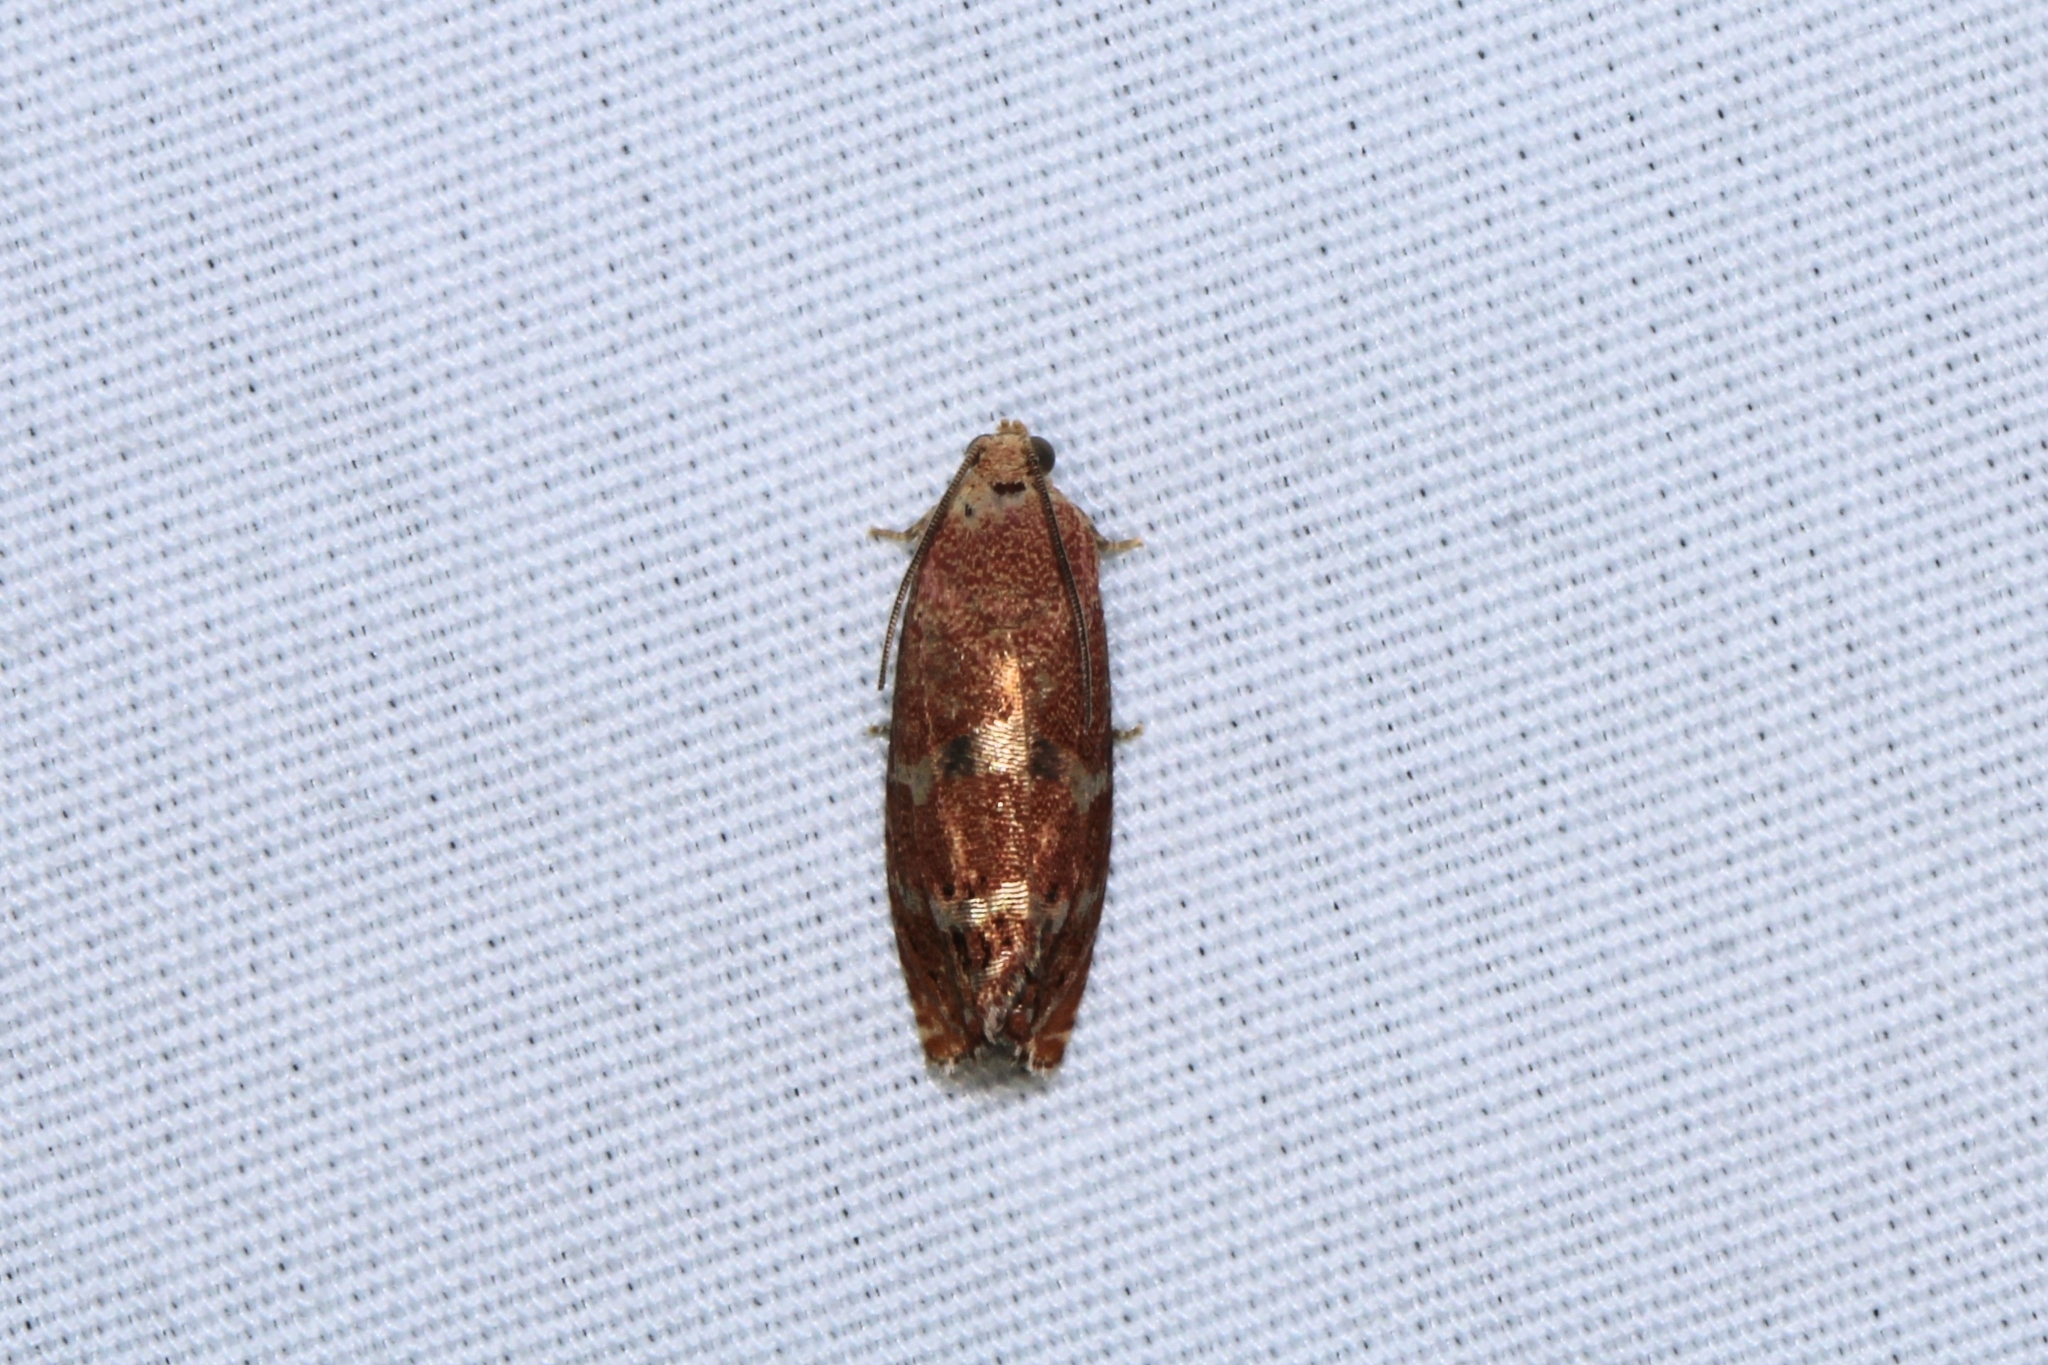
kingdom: Animalia
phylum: Arthropoda
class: Insecta
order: Lepidoptera
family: Tortricidae
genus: Cydia
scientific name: Cydia latiferreana
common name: Filbertworm moth
